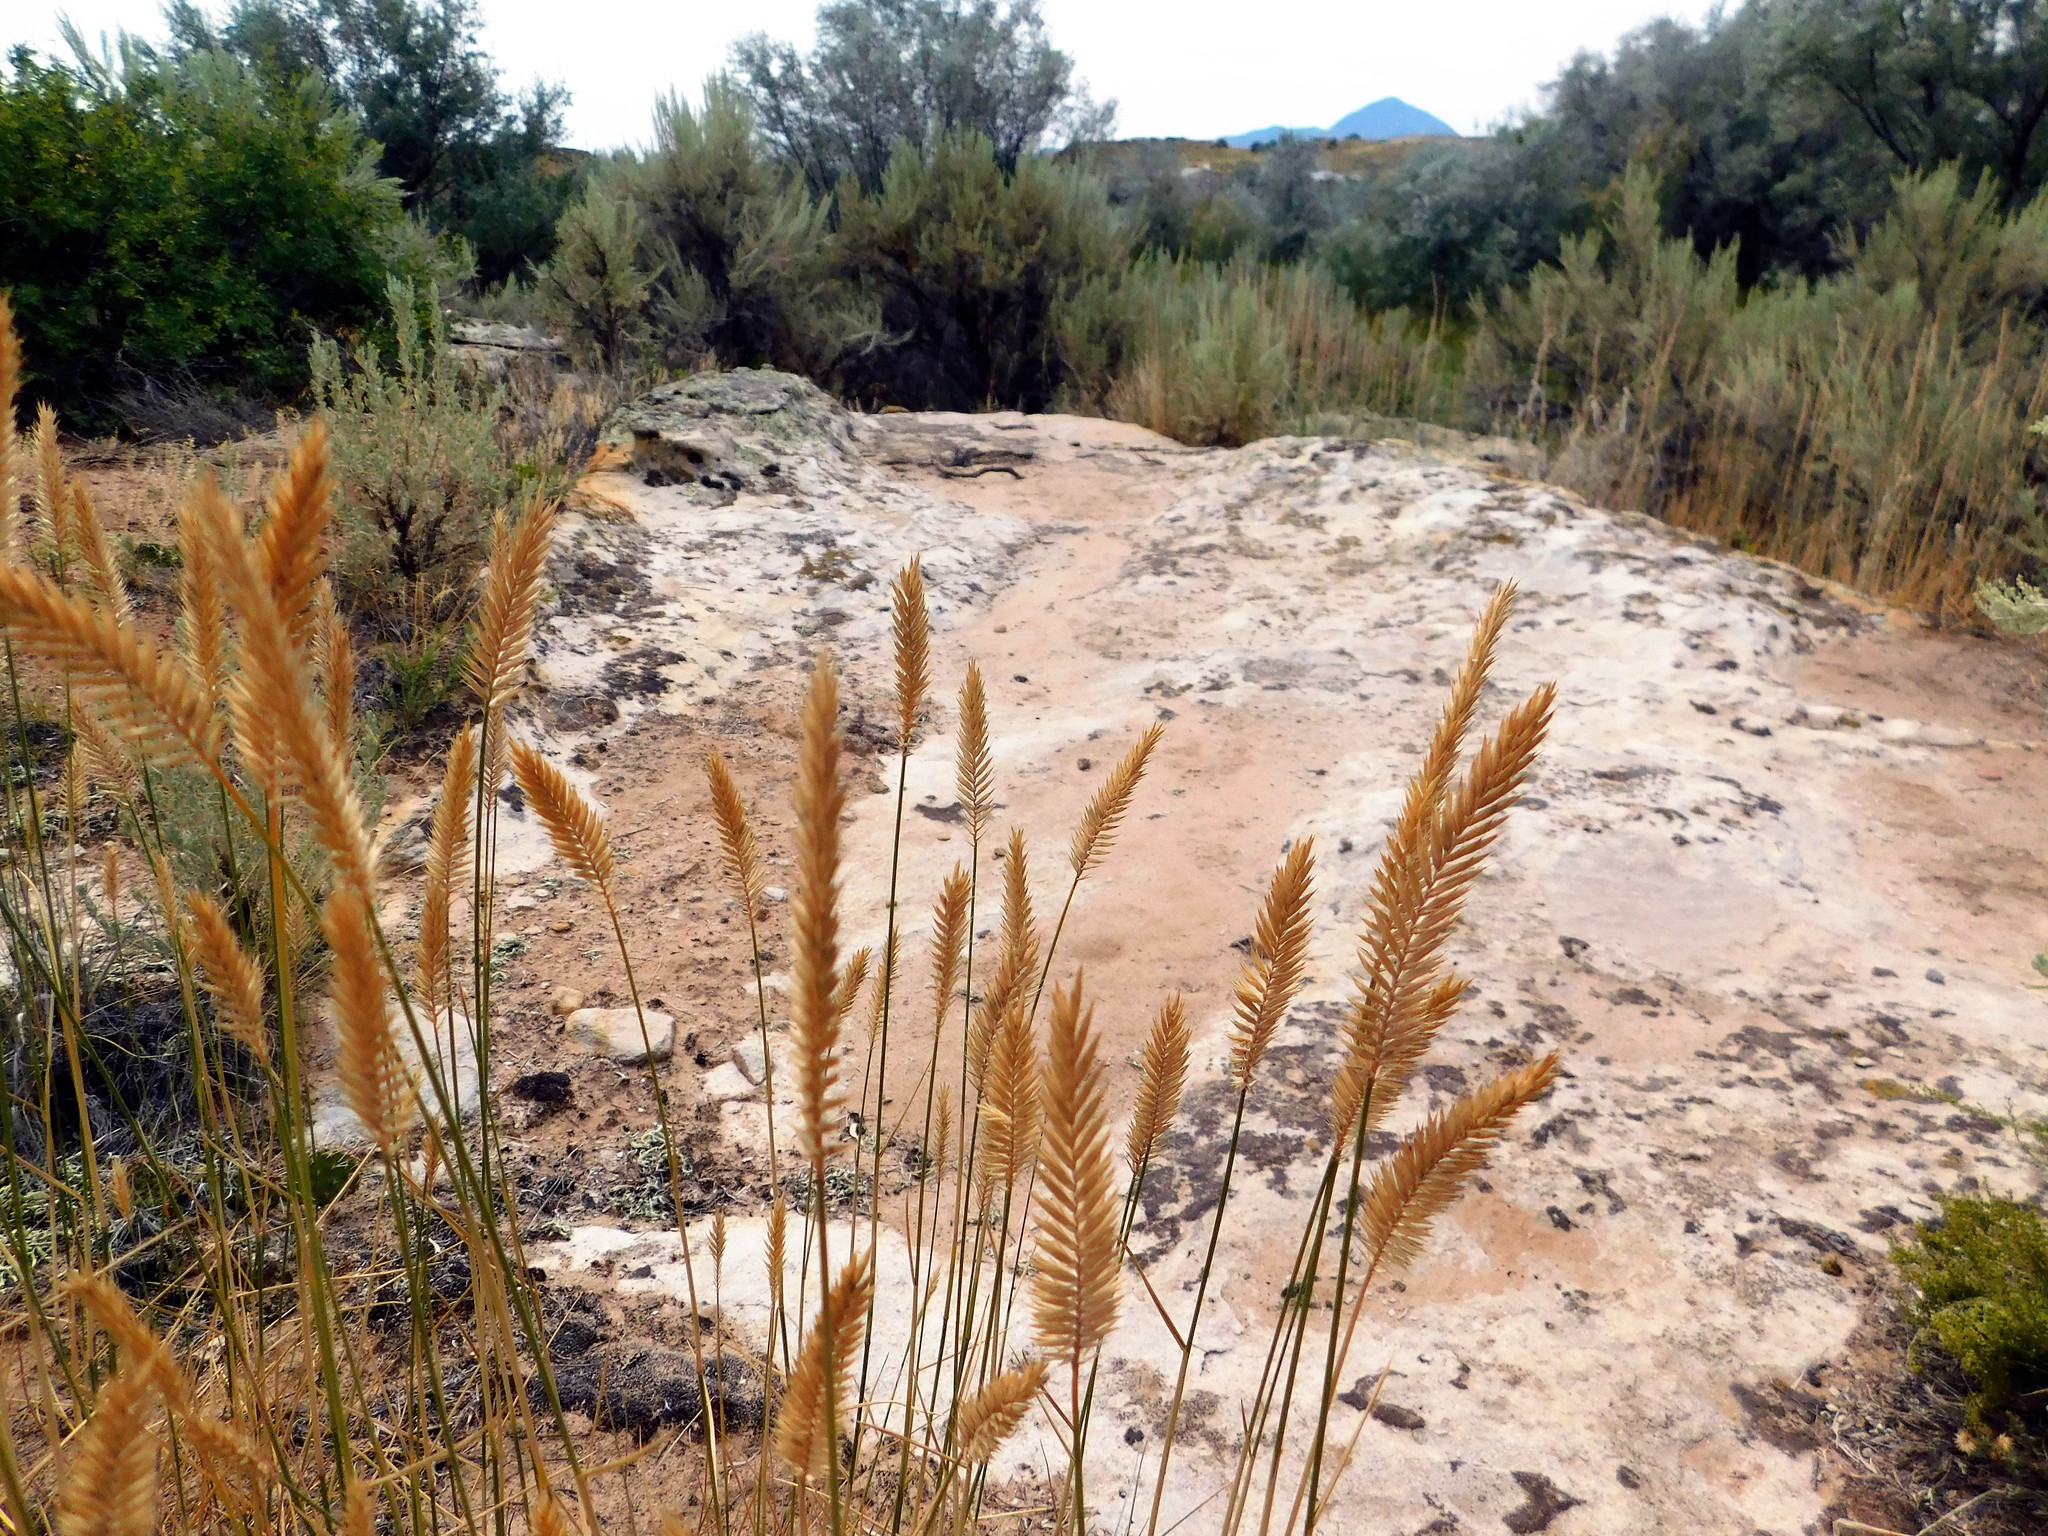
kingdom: Plantae
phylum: Tracheophyta
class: Liliopsida
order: Poales
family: Poaceae
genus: Agropyron
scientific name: Agropyron cristatum
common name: Crested wheatgrass
